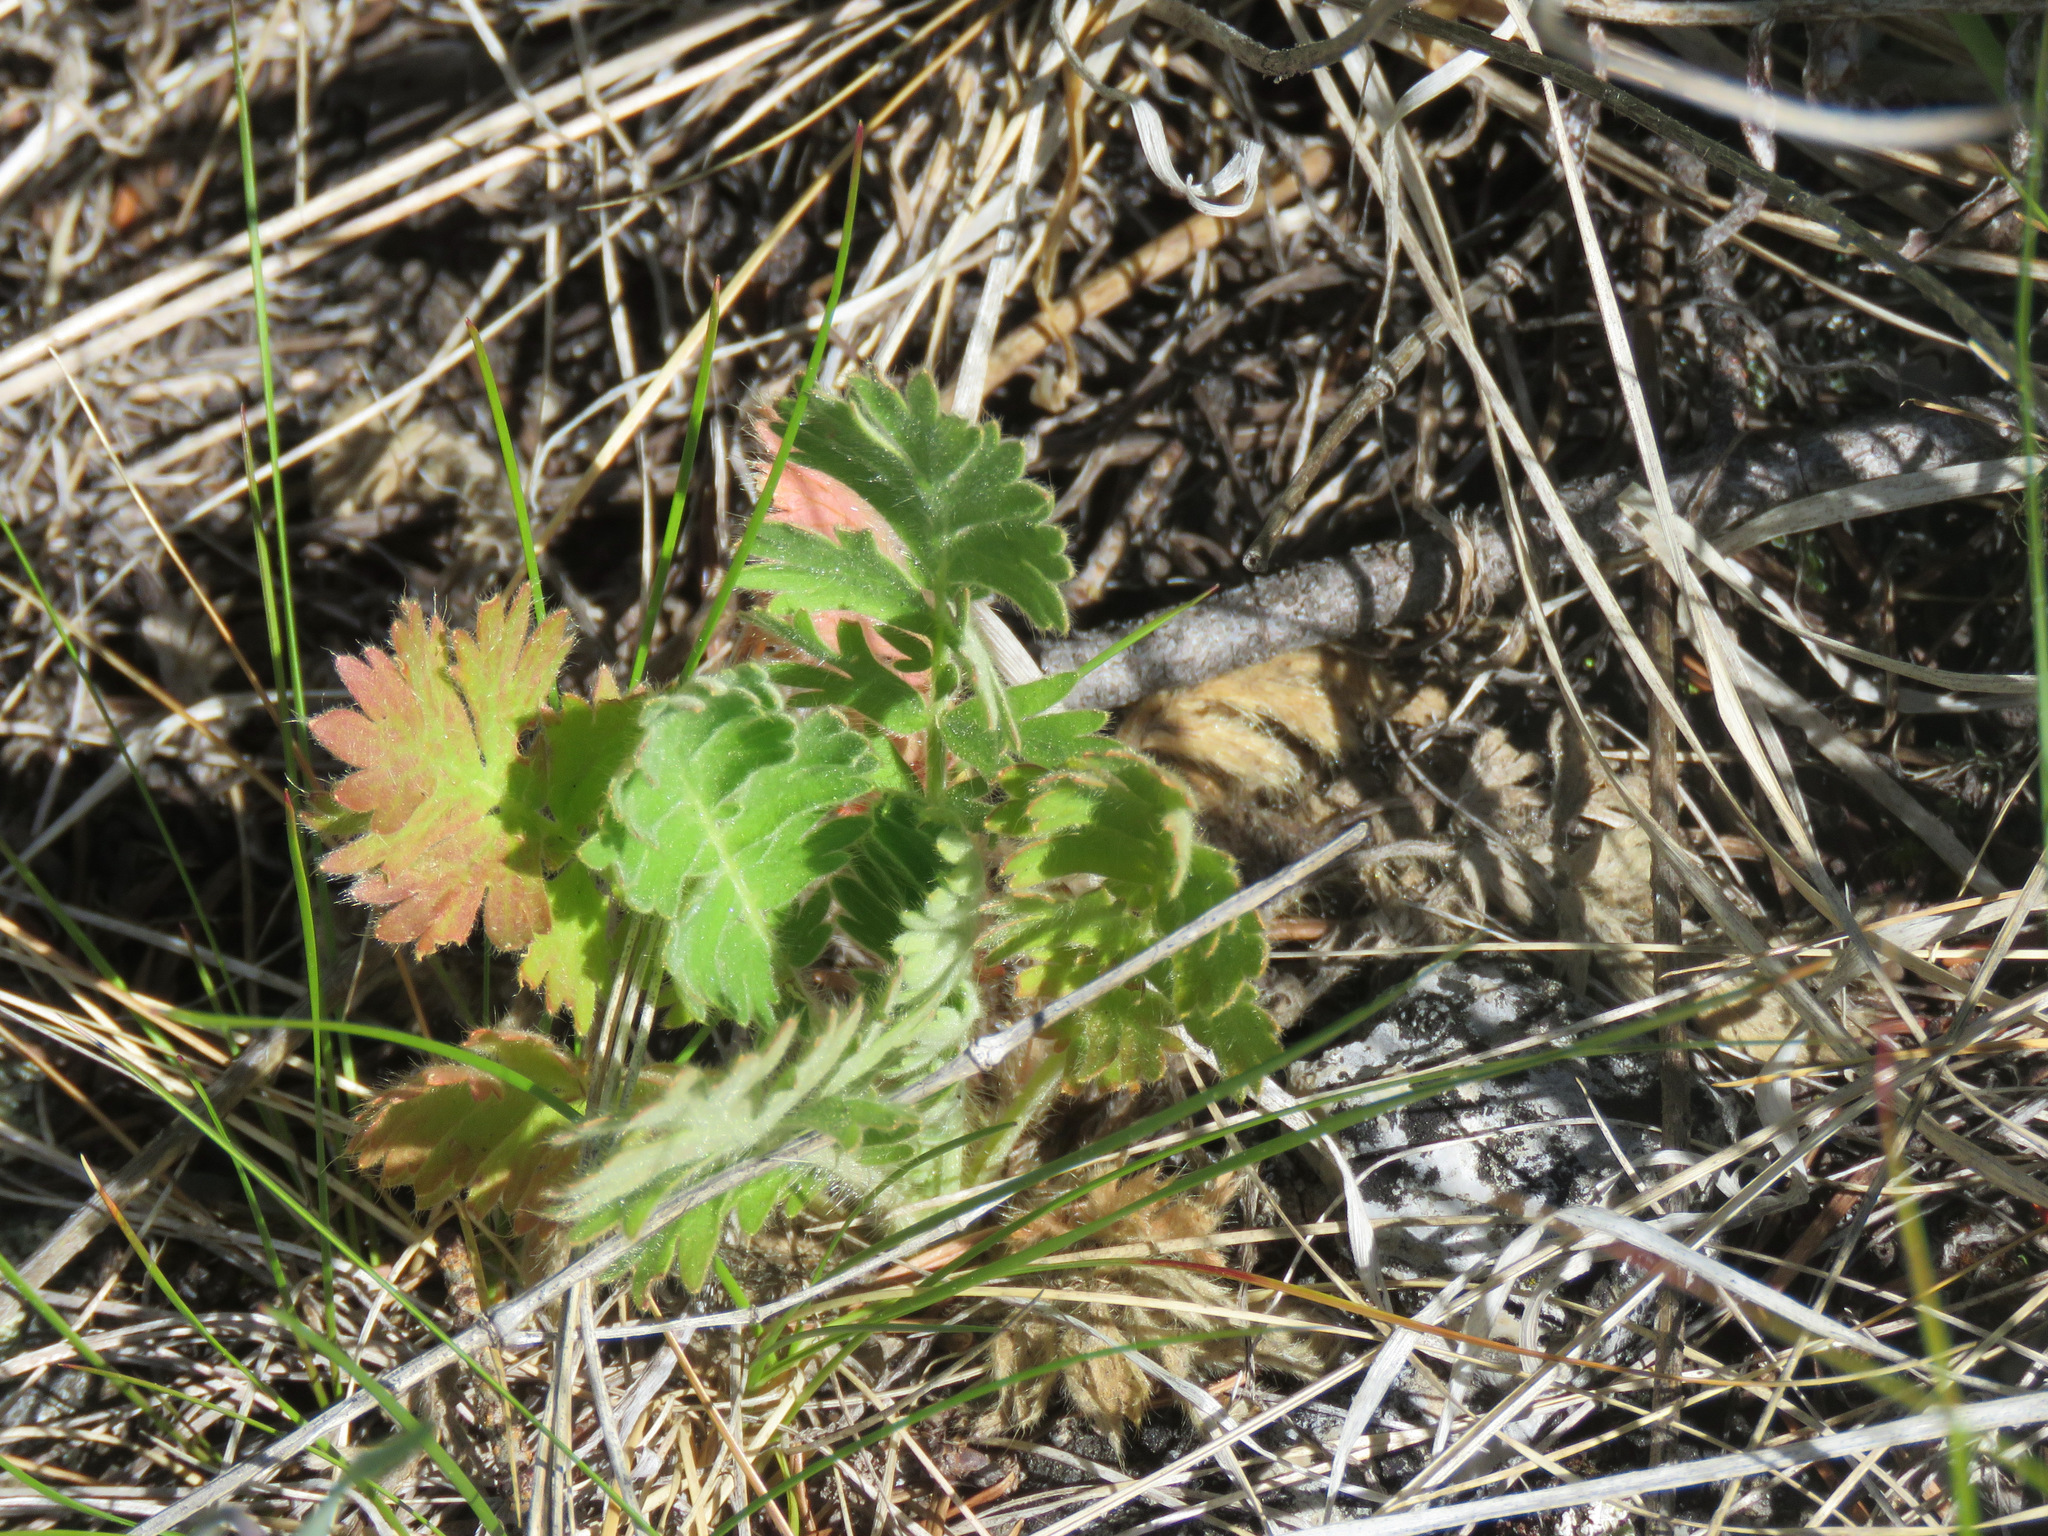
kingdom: Plantae
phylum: Tracheophyta
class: Magnoliopsida
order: Rosales
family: Rosaceae
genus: Geum
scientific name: Geum triflorum
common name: Old man's whiskers
